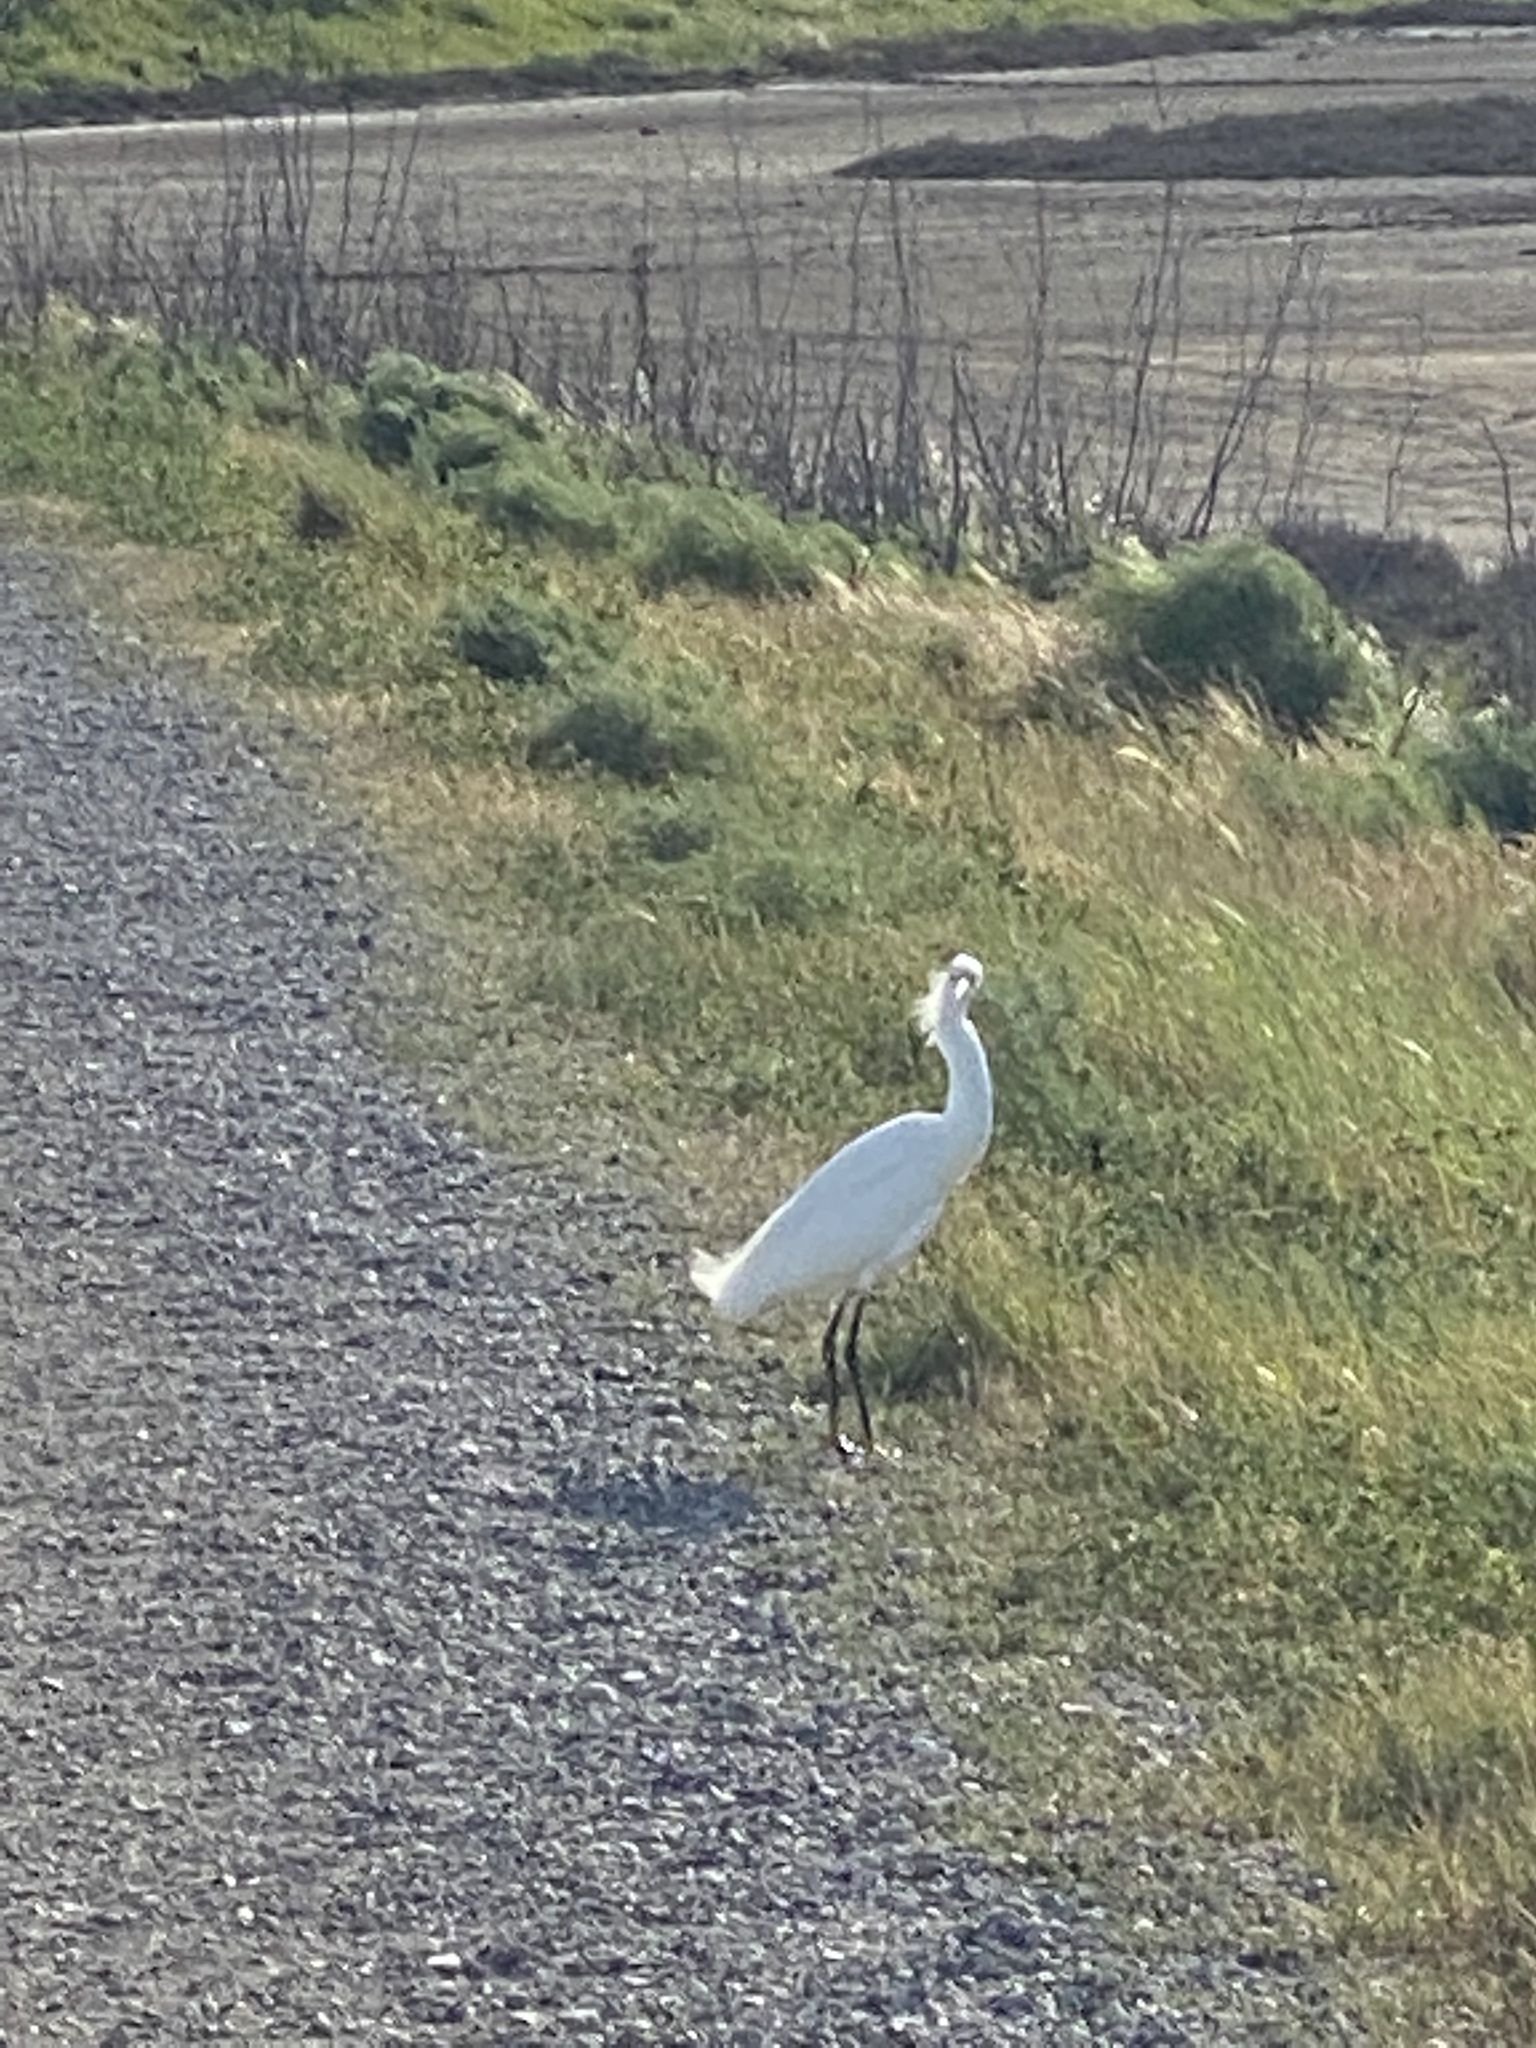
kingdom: Animalia
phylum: Chordata
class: Aves
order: Pelecaniformes
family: Ardeidae
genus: Egretta
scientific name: Egretta thula
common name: Snowy egret
